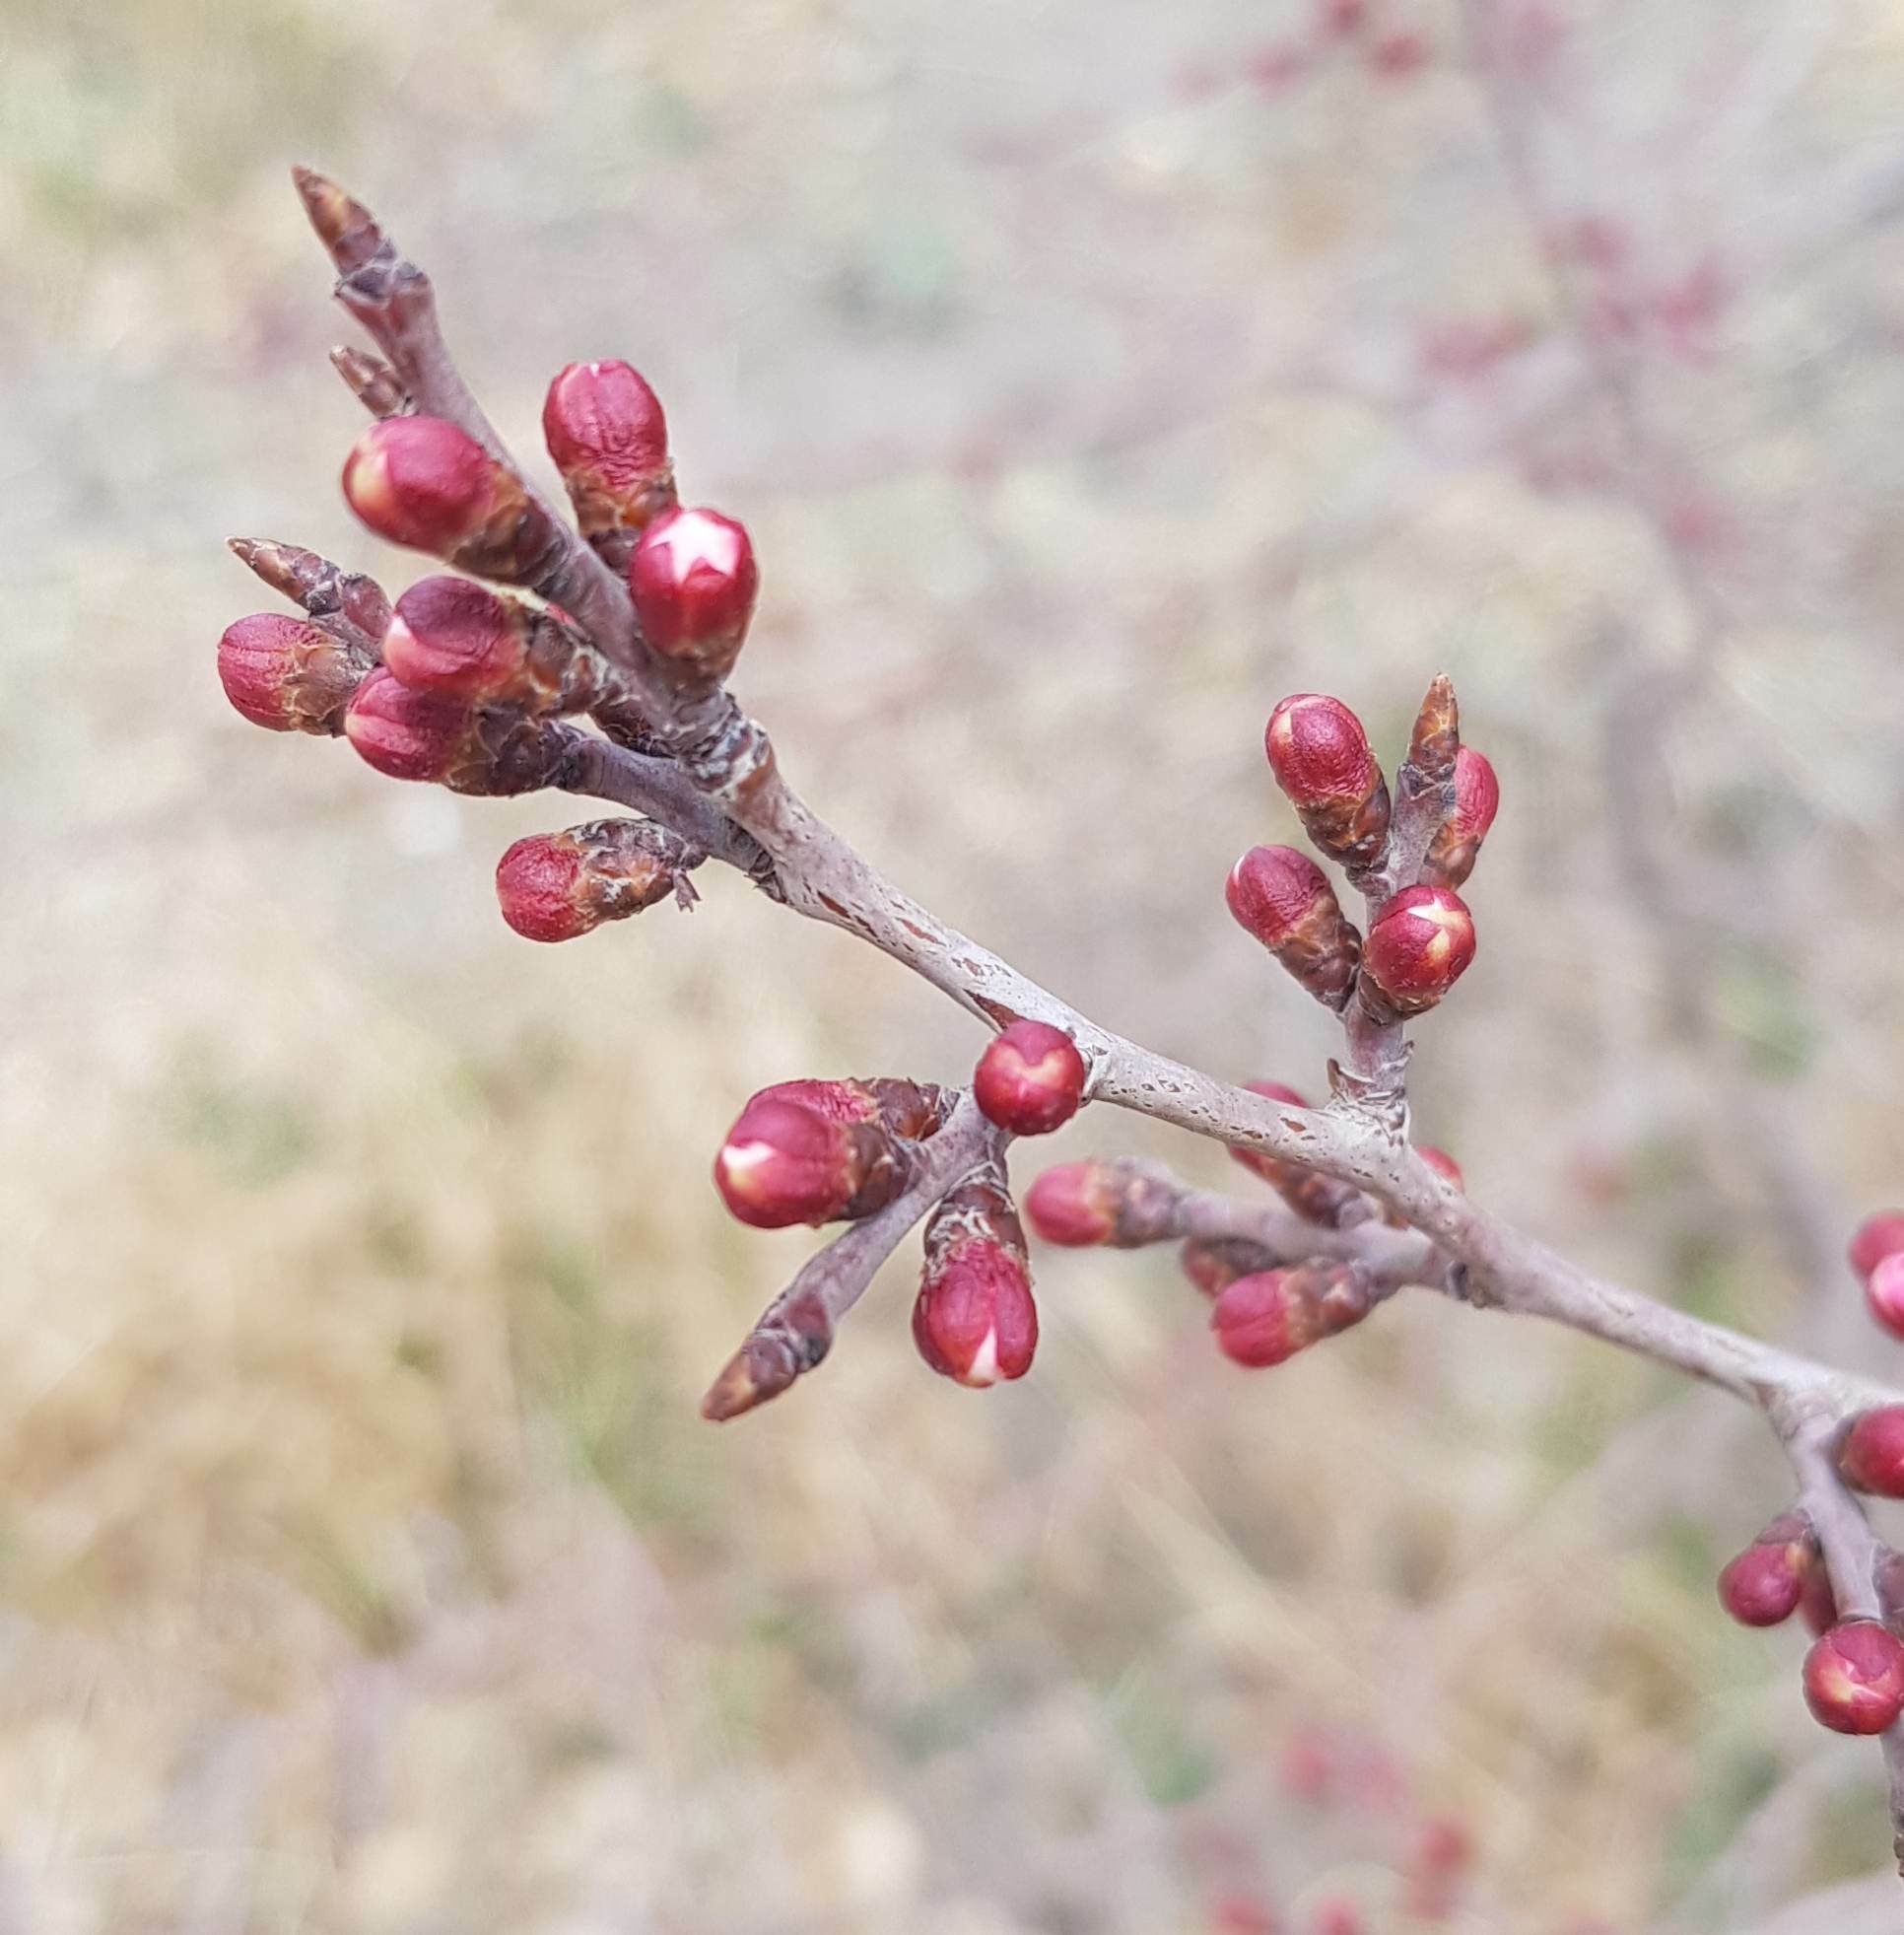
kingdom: Plantae
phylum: Tracheophyta
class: Magnoliopsida
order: Rosales
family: Rosaceae
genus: Prunus
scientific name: Prunus sibirica
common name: Siberian apricot
